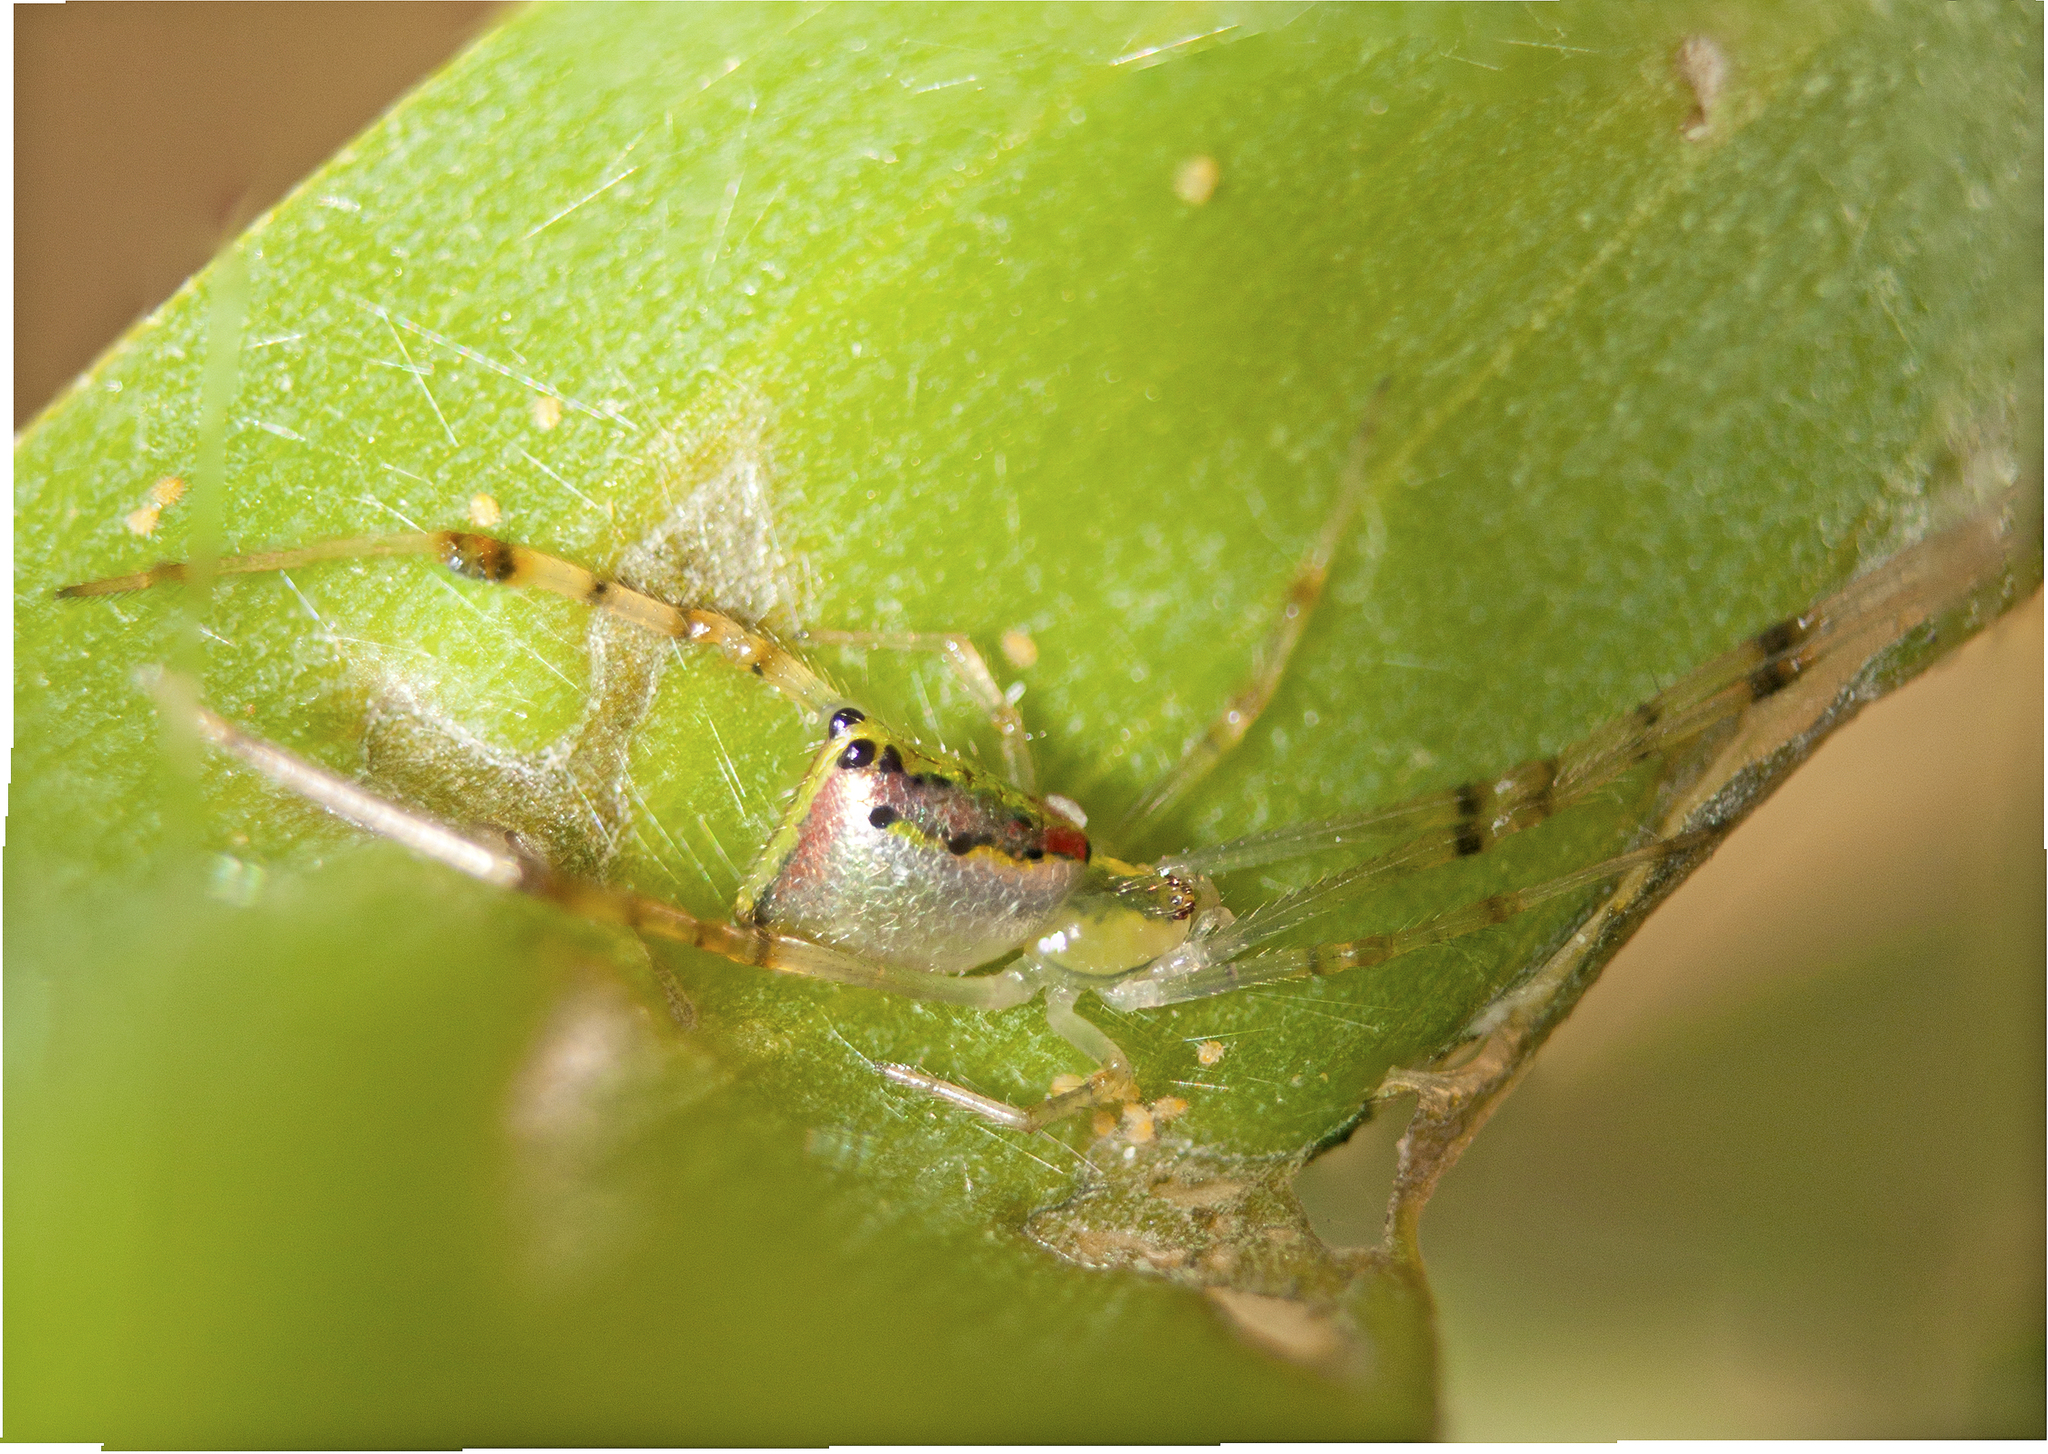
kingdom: Animalia
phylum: Arthropoda
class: Arachnida
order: Araneae
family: Theridiidae
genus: Thwaitesia
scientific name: Thwaitesia nigronodosa
